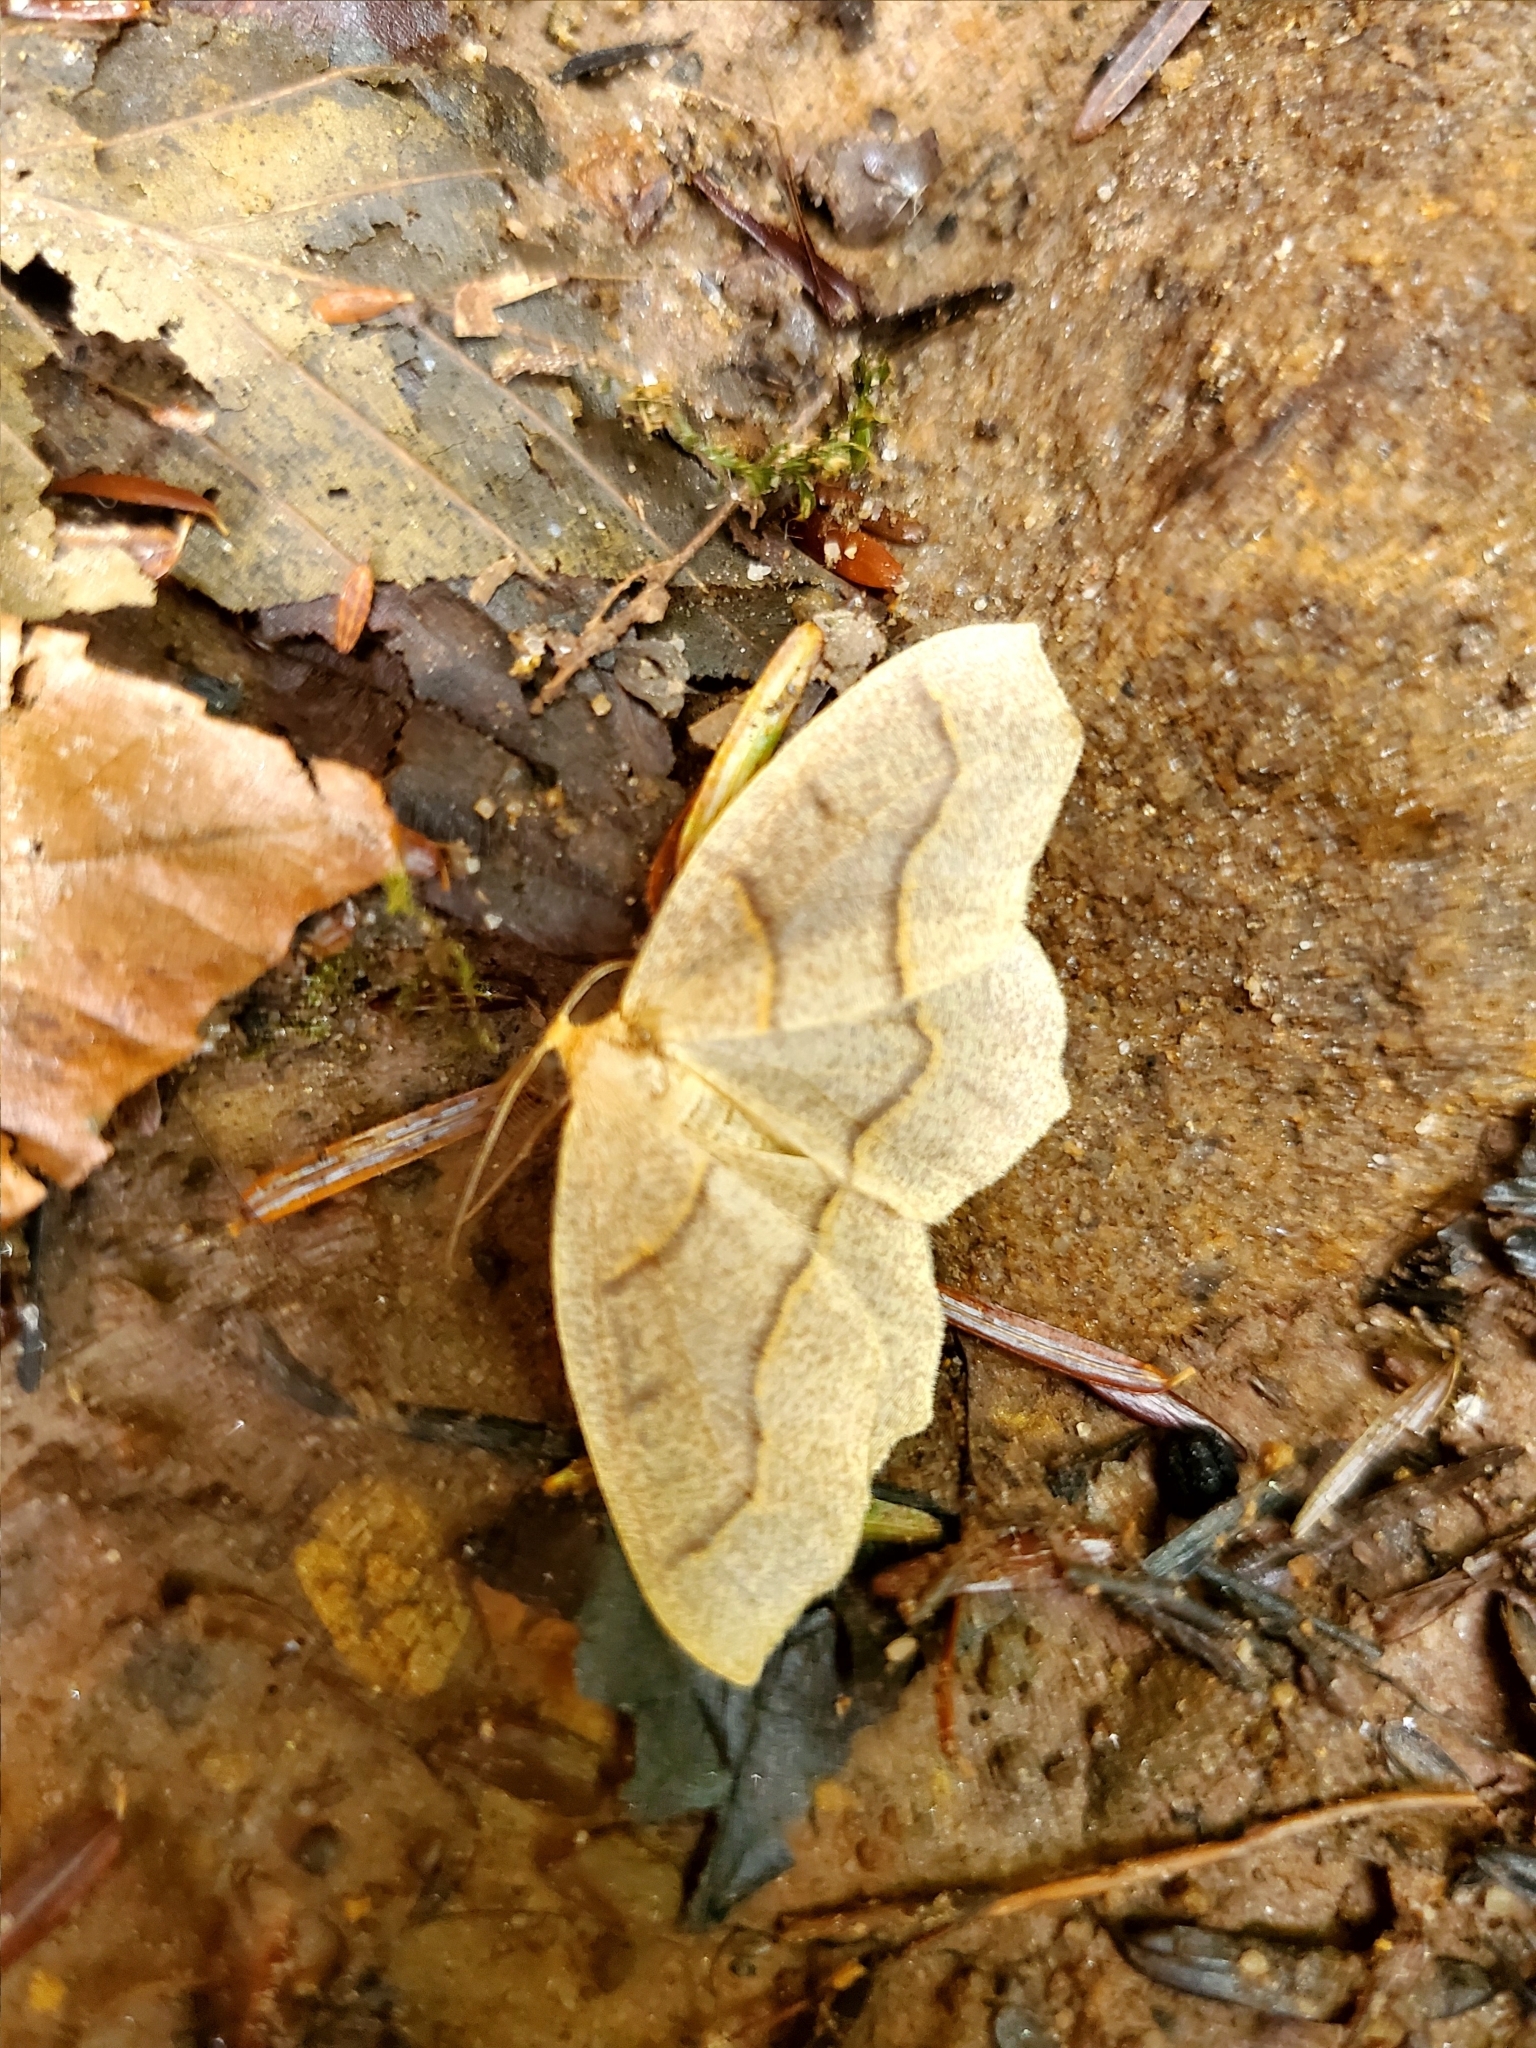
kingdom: Animalia
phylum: Arthropoda
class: Insecta
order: Lepidoptera
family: Geometridae
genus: Lambdina
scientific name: Lambdina fiscellaria
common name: Hemlock looper
